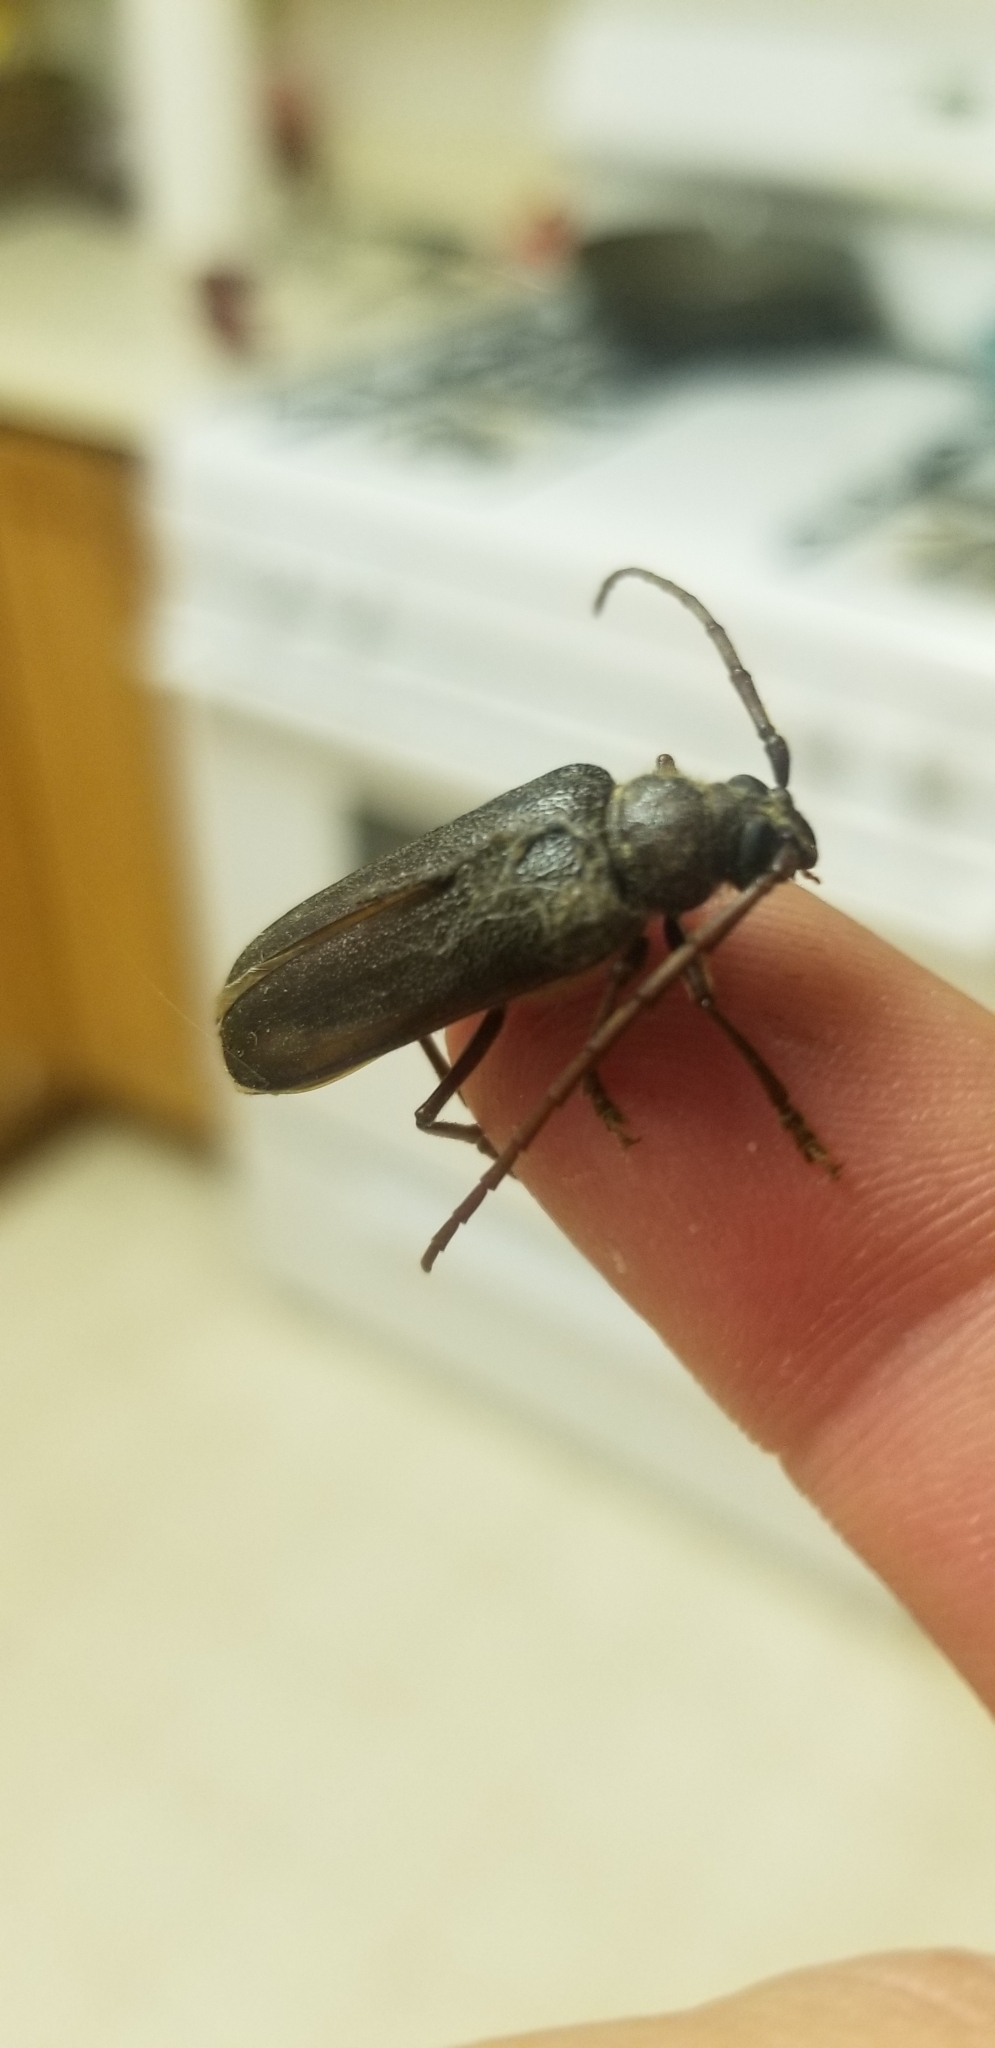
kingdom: Animalia
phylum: Arthropoda
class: Insecta
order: Coleoptera
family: Cerambycidae
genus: Tragosoma
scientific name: Tragosoma harrisii
